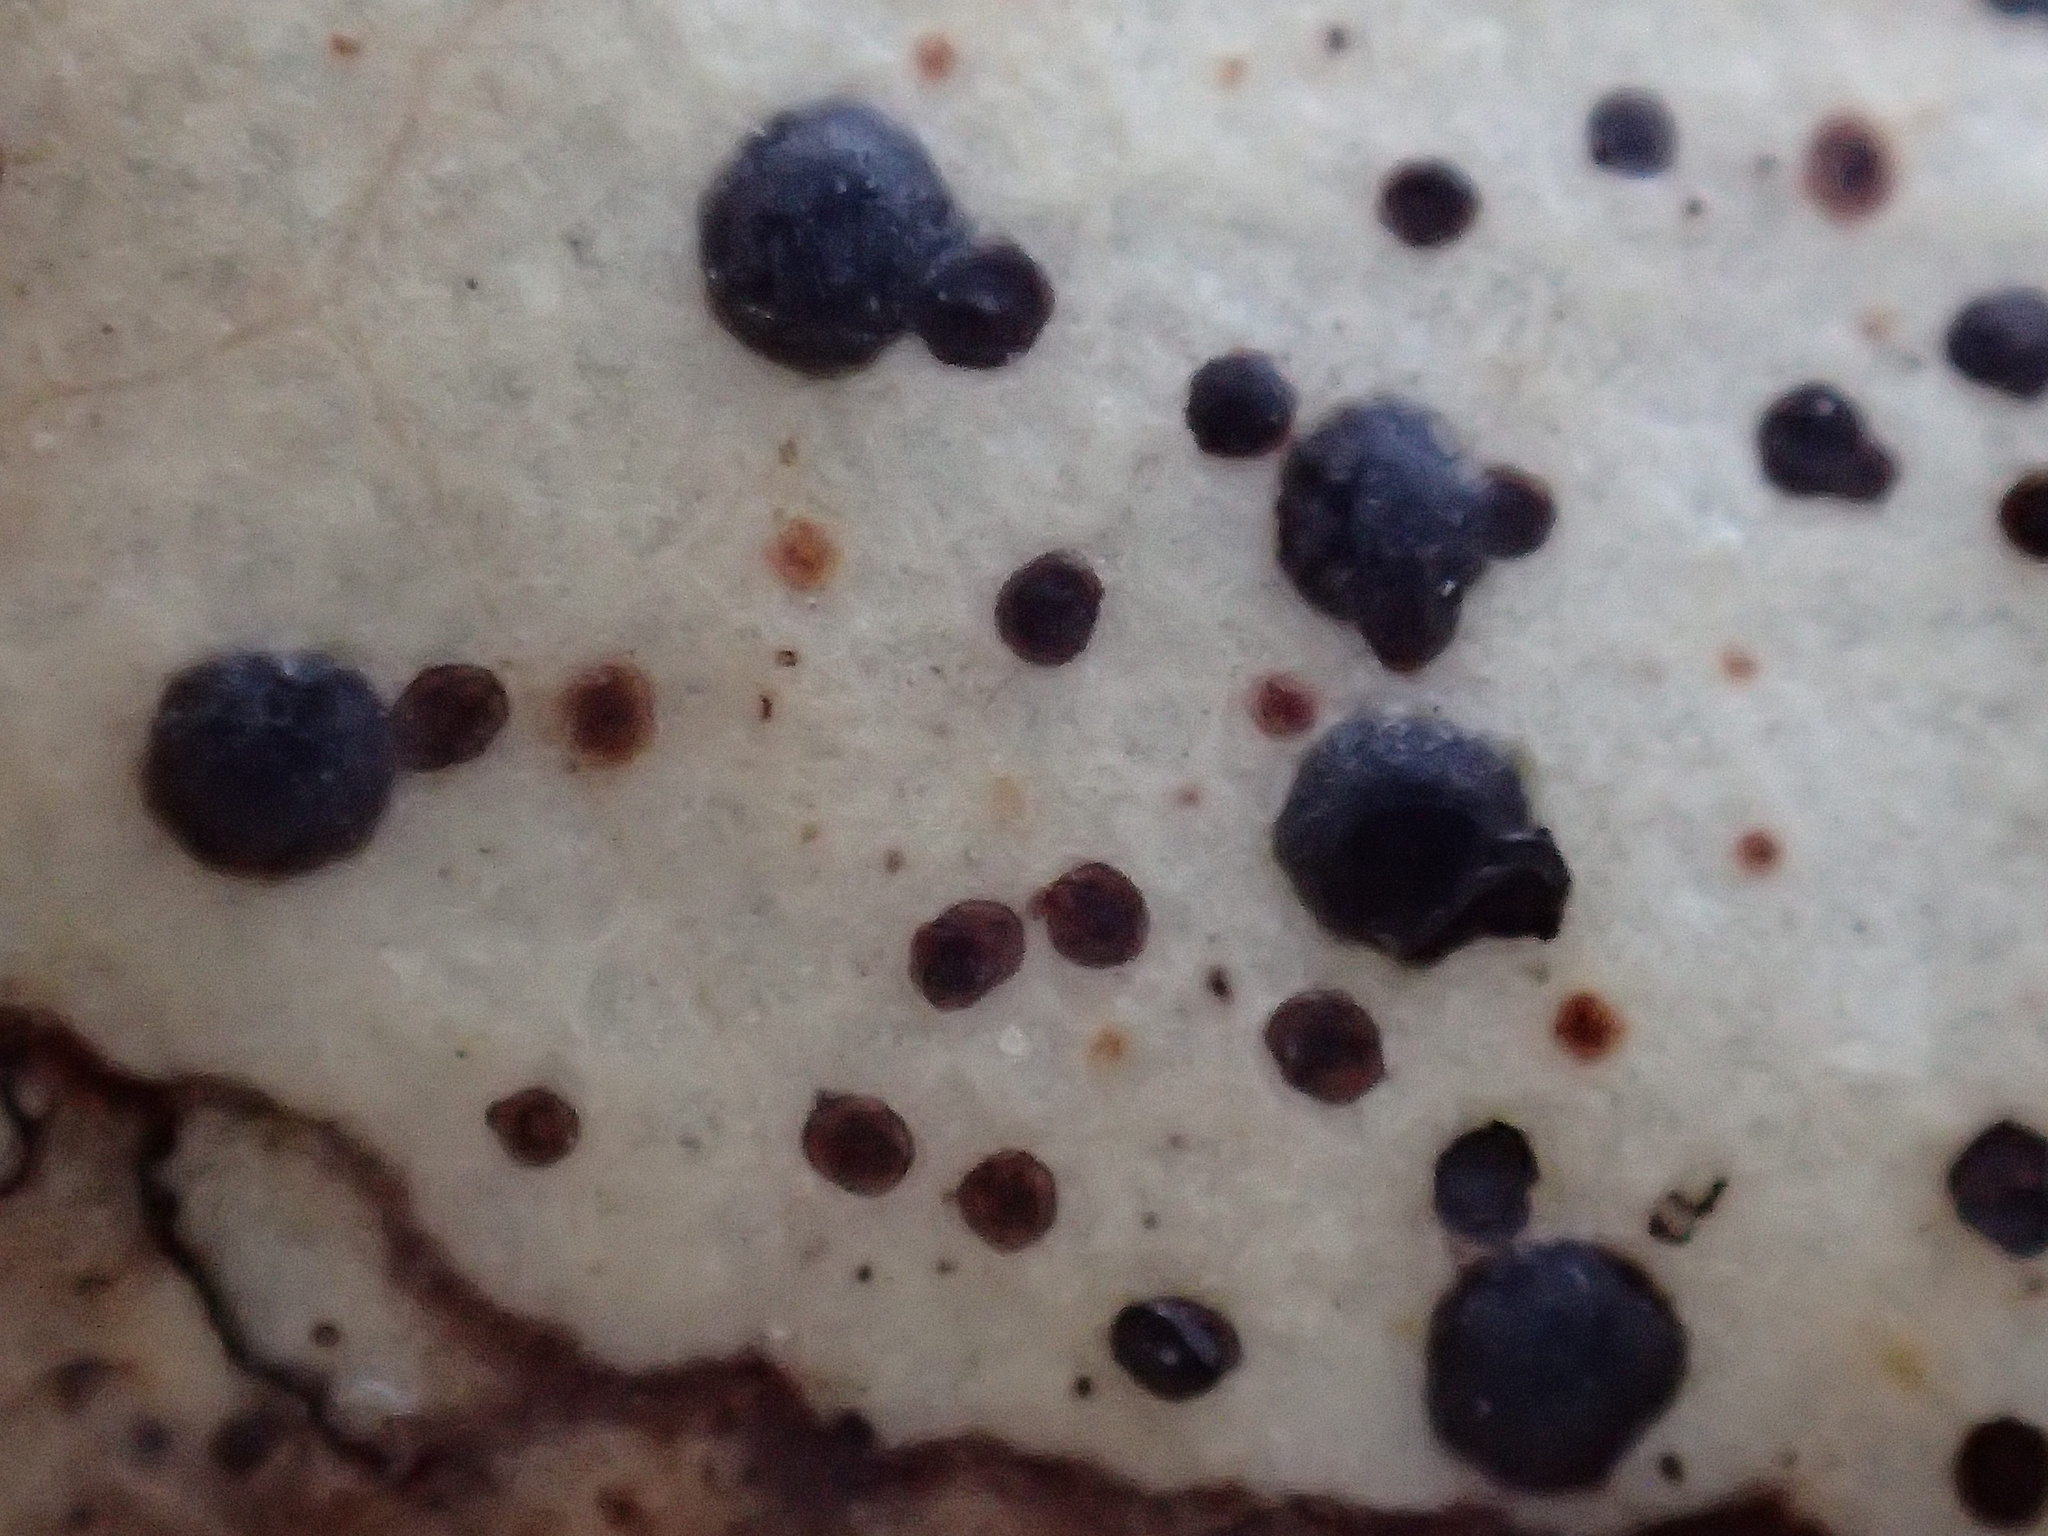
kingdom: Fungi
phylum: Ascomycota
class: Leotiomycetes
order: Rhytismatales
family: Rhytismataceae
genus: Coccomyces
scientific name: Coccomyces dentatus
